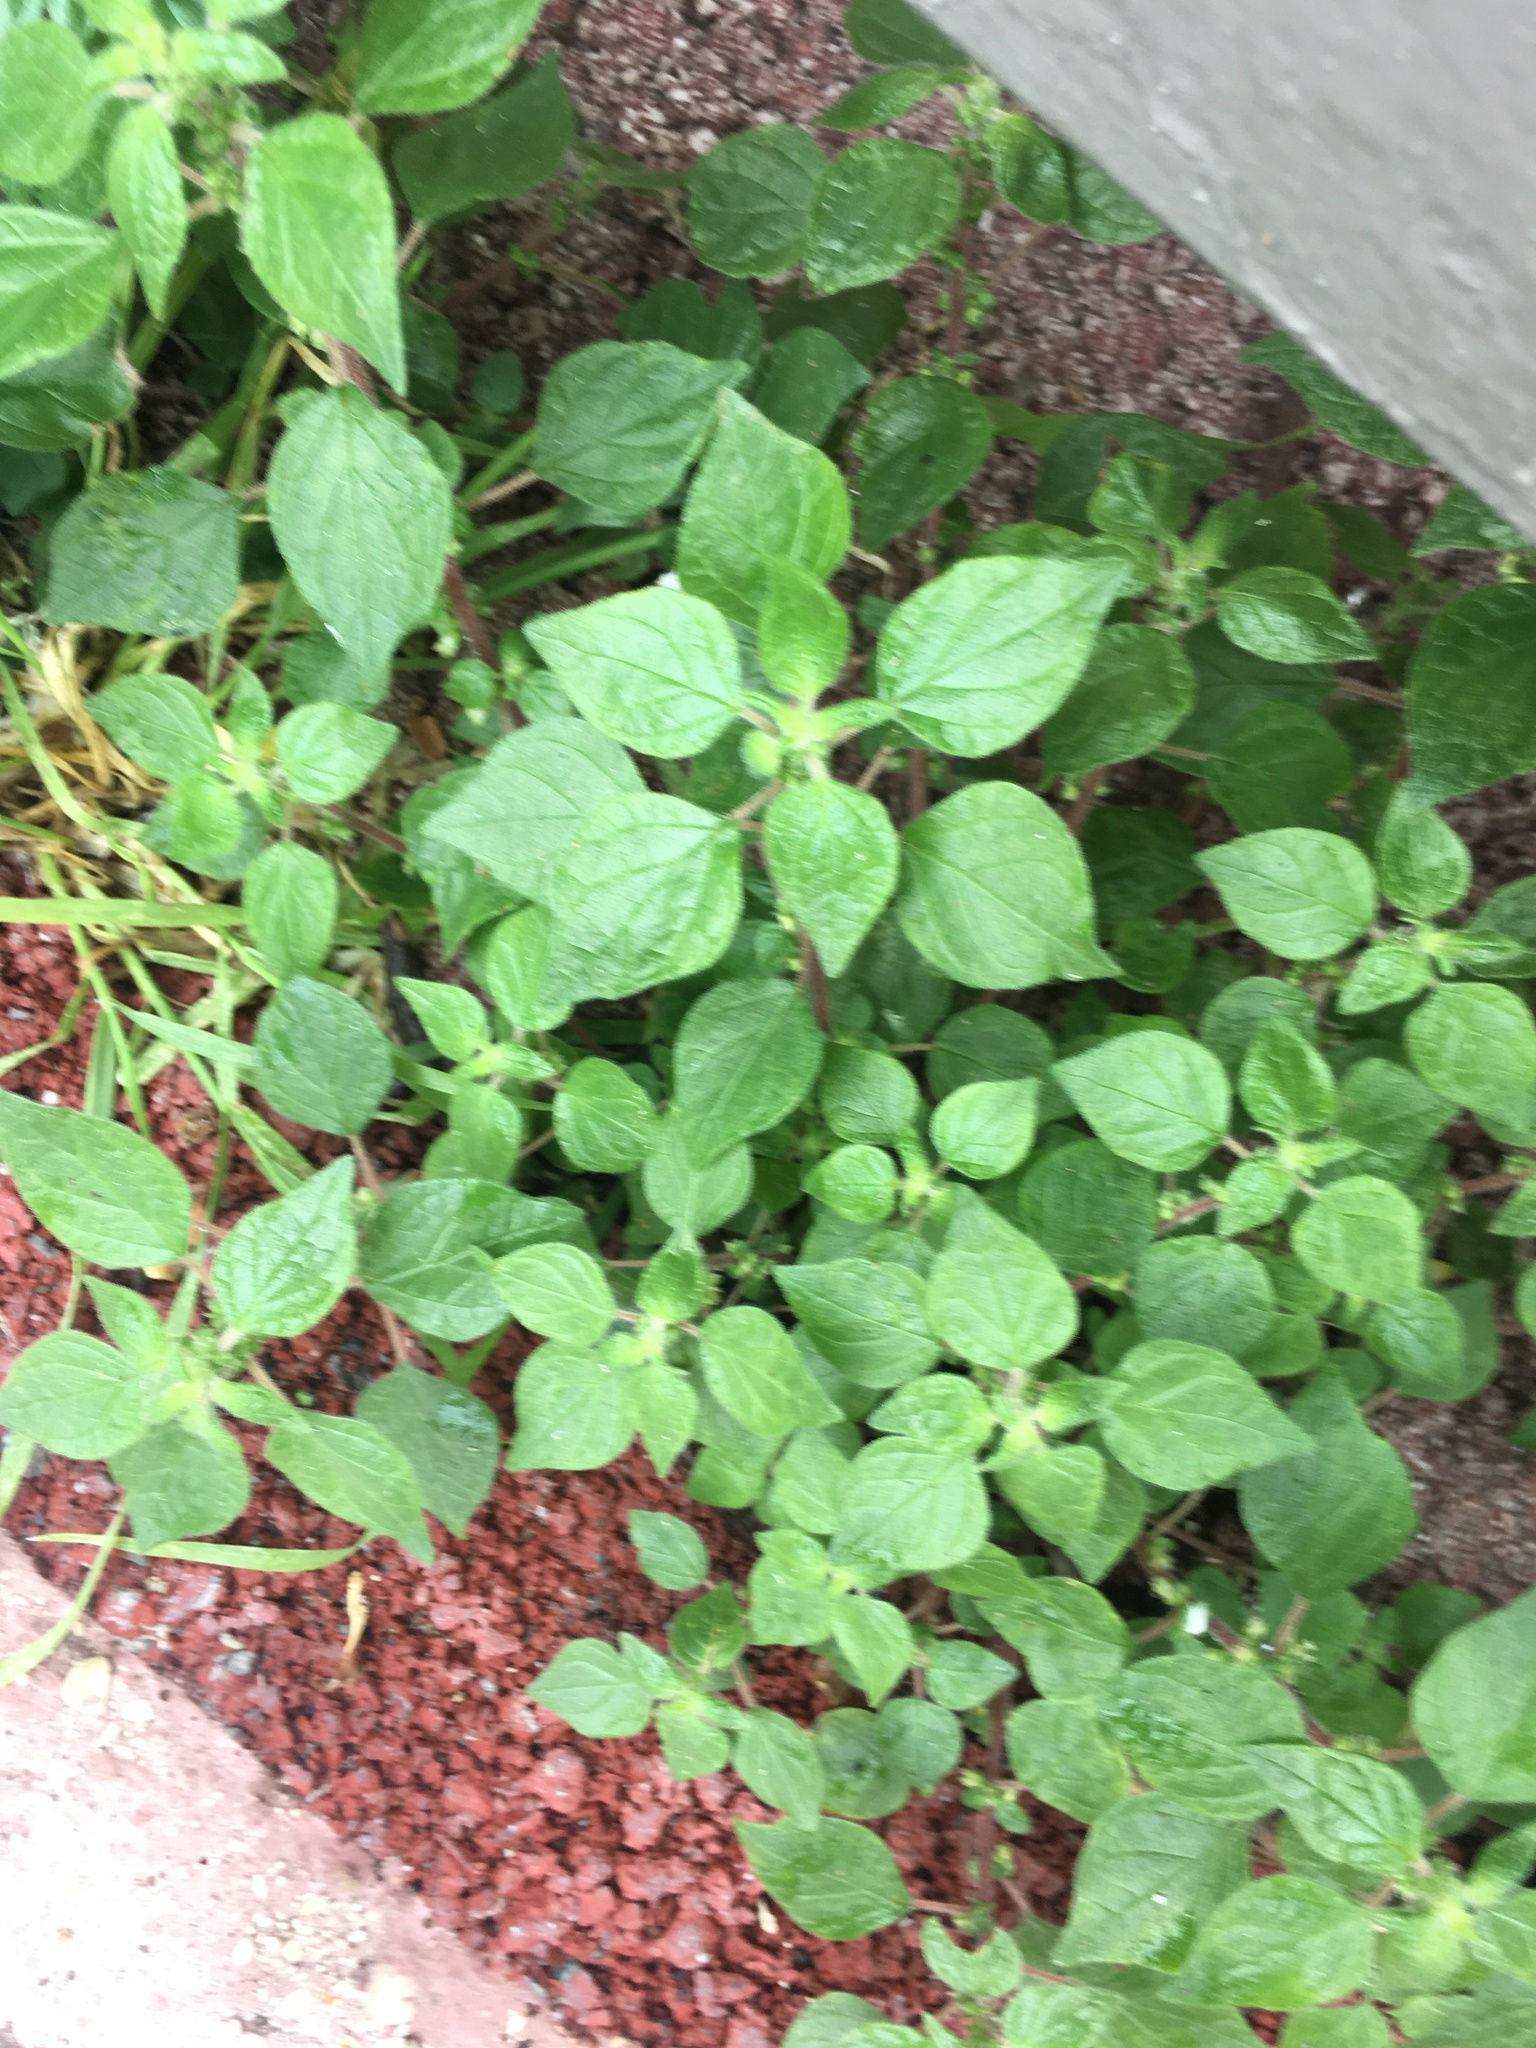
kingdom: Plantae
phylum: Tracheophyta
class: Magnoliopsida
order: Rosales
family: Urticaceae
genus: Parietaria
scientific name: Parietaria judaica
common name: Pellitory-of-the-wall
